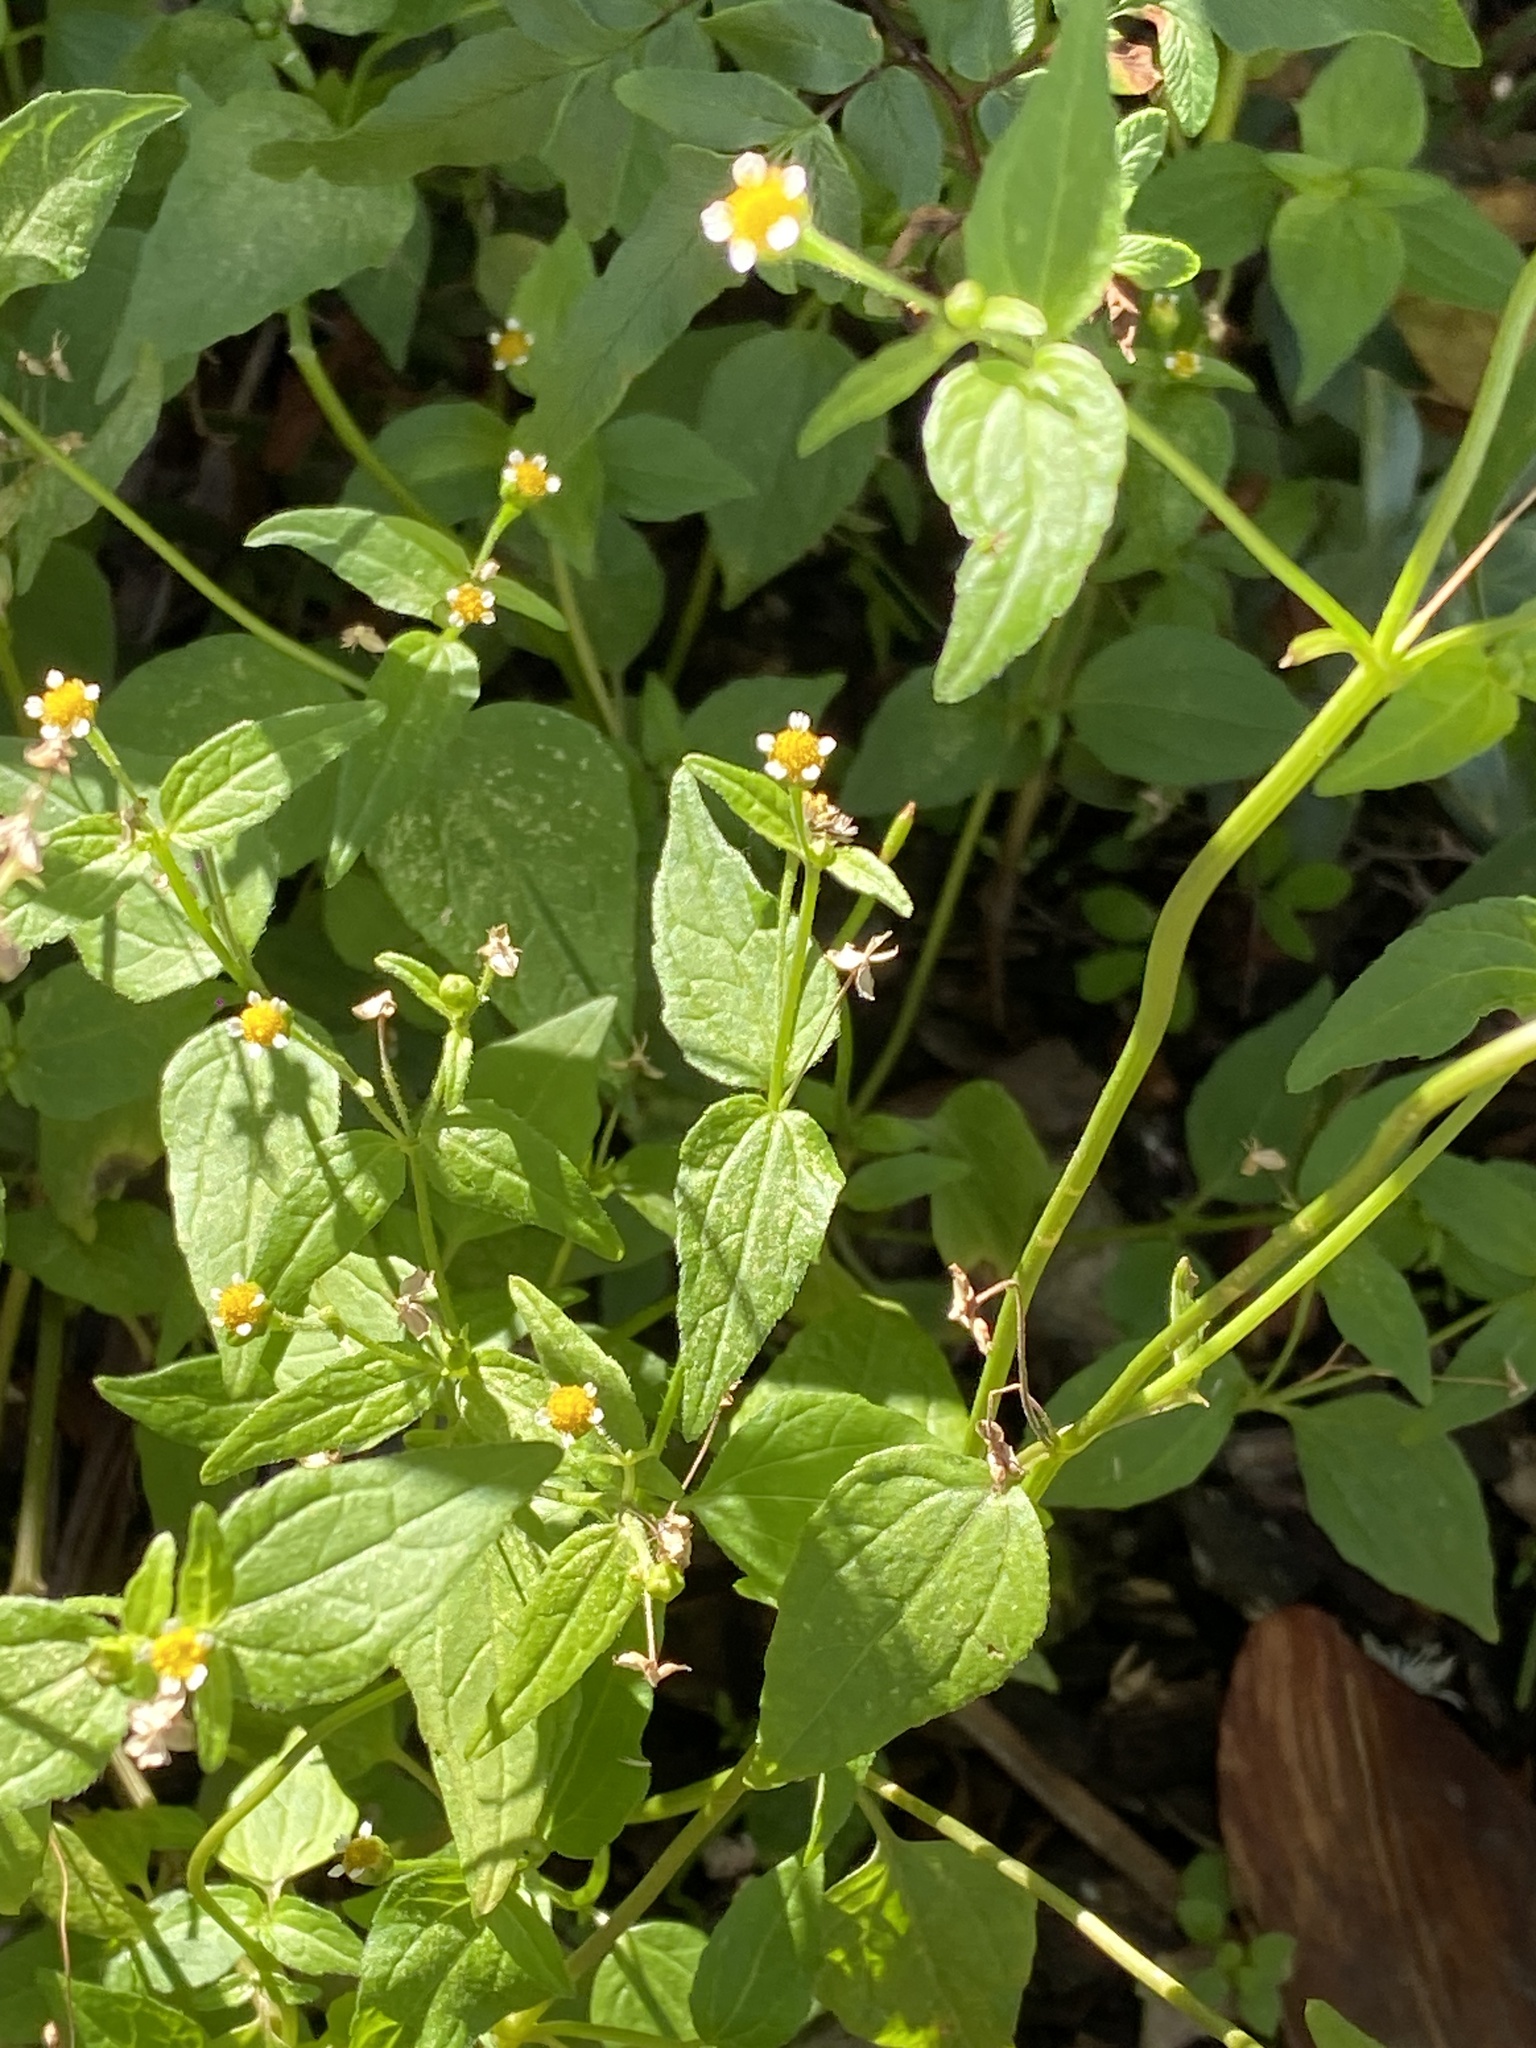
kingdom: Plantae
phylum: Tracheophyta
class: Magnoliopsida
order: Asterales
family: Asteraceae
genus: Galinsoga
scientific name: Galinsoga parviflora
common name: Gallant soldier
